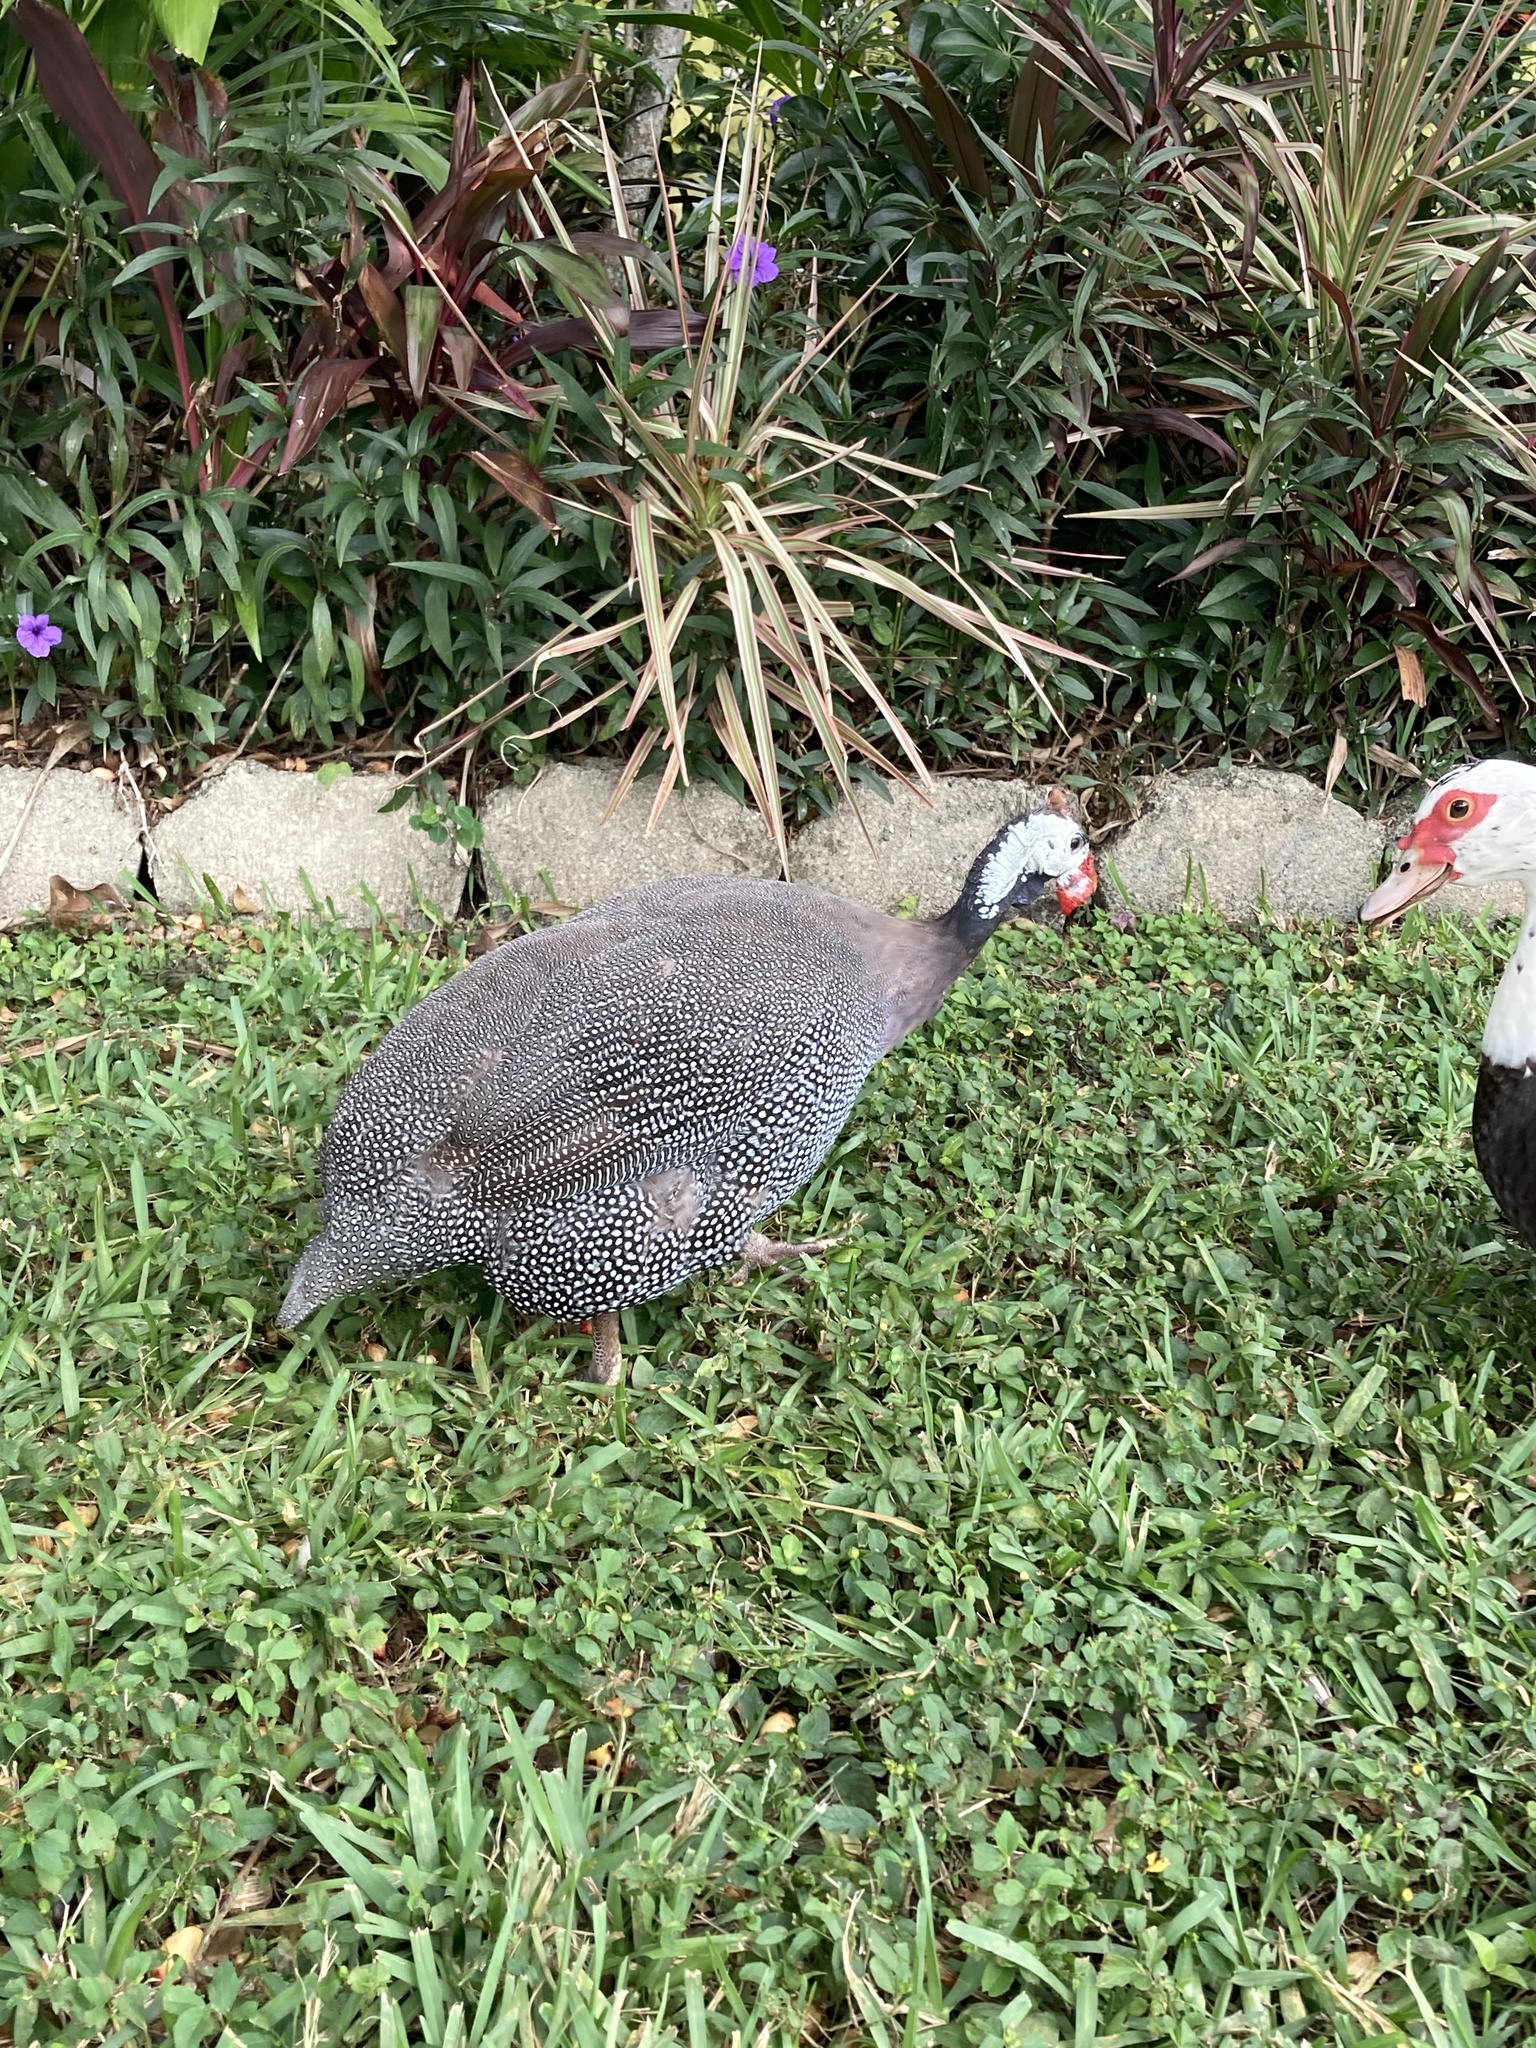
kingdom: Animalia
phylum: Chordata
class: Aves
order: Galliformes
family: Numididae
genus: Numida
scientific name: Numida meleagris
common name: Helmeted guineafowl
